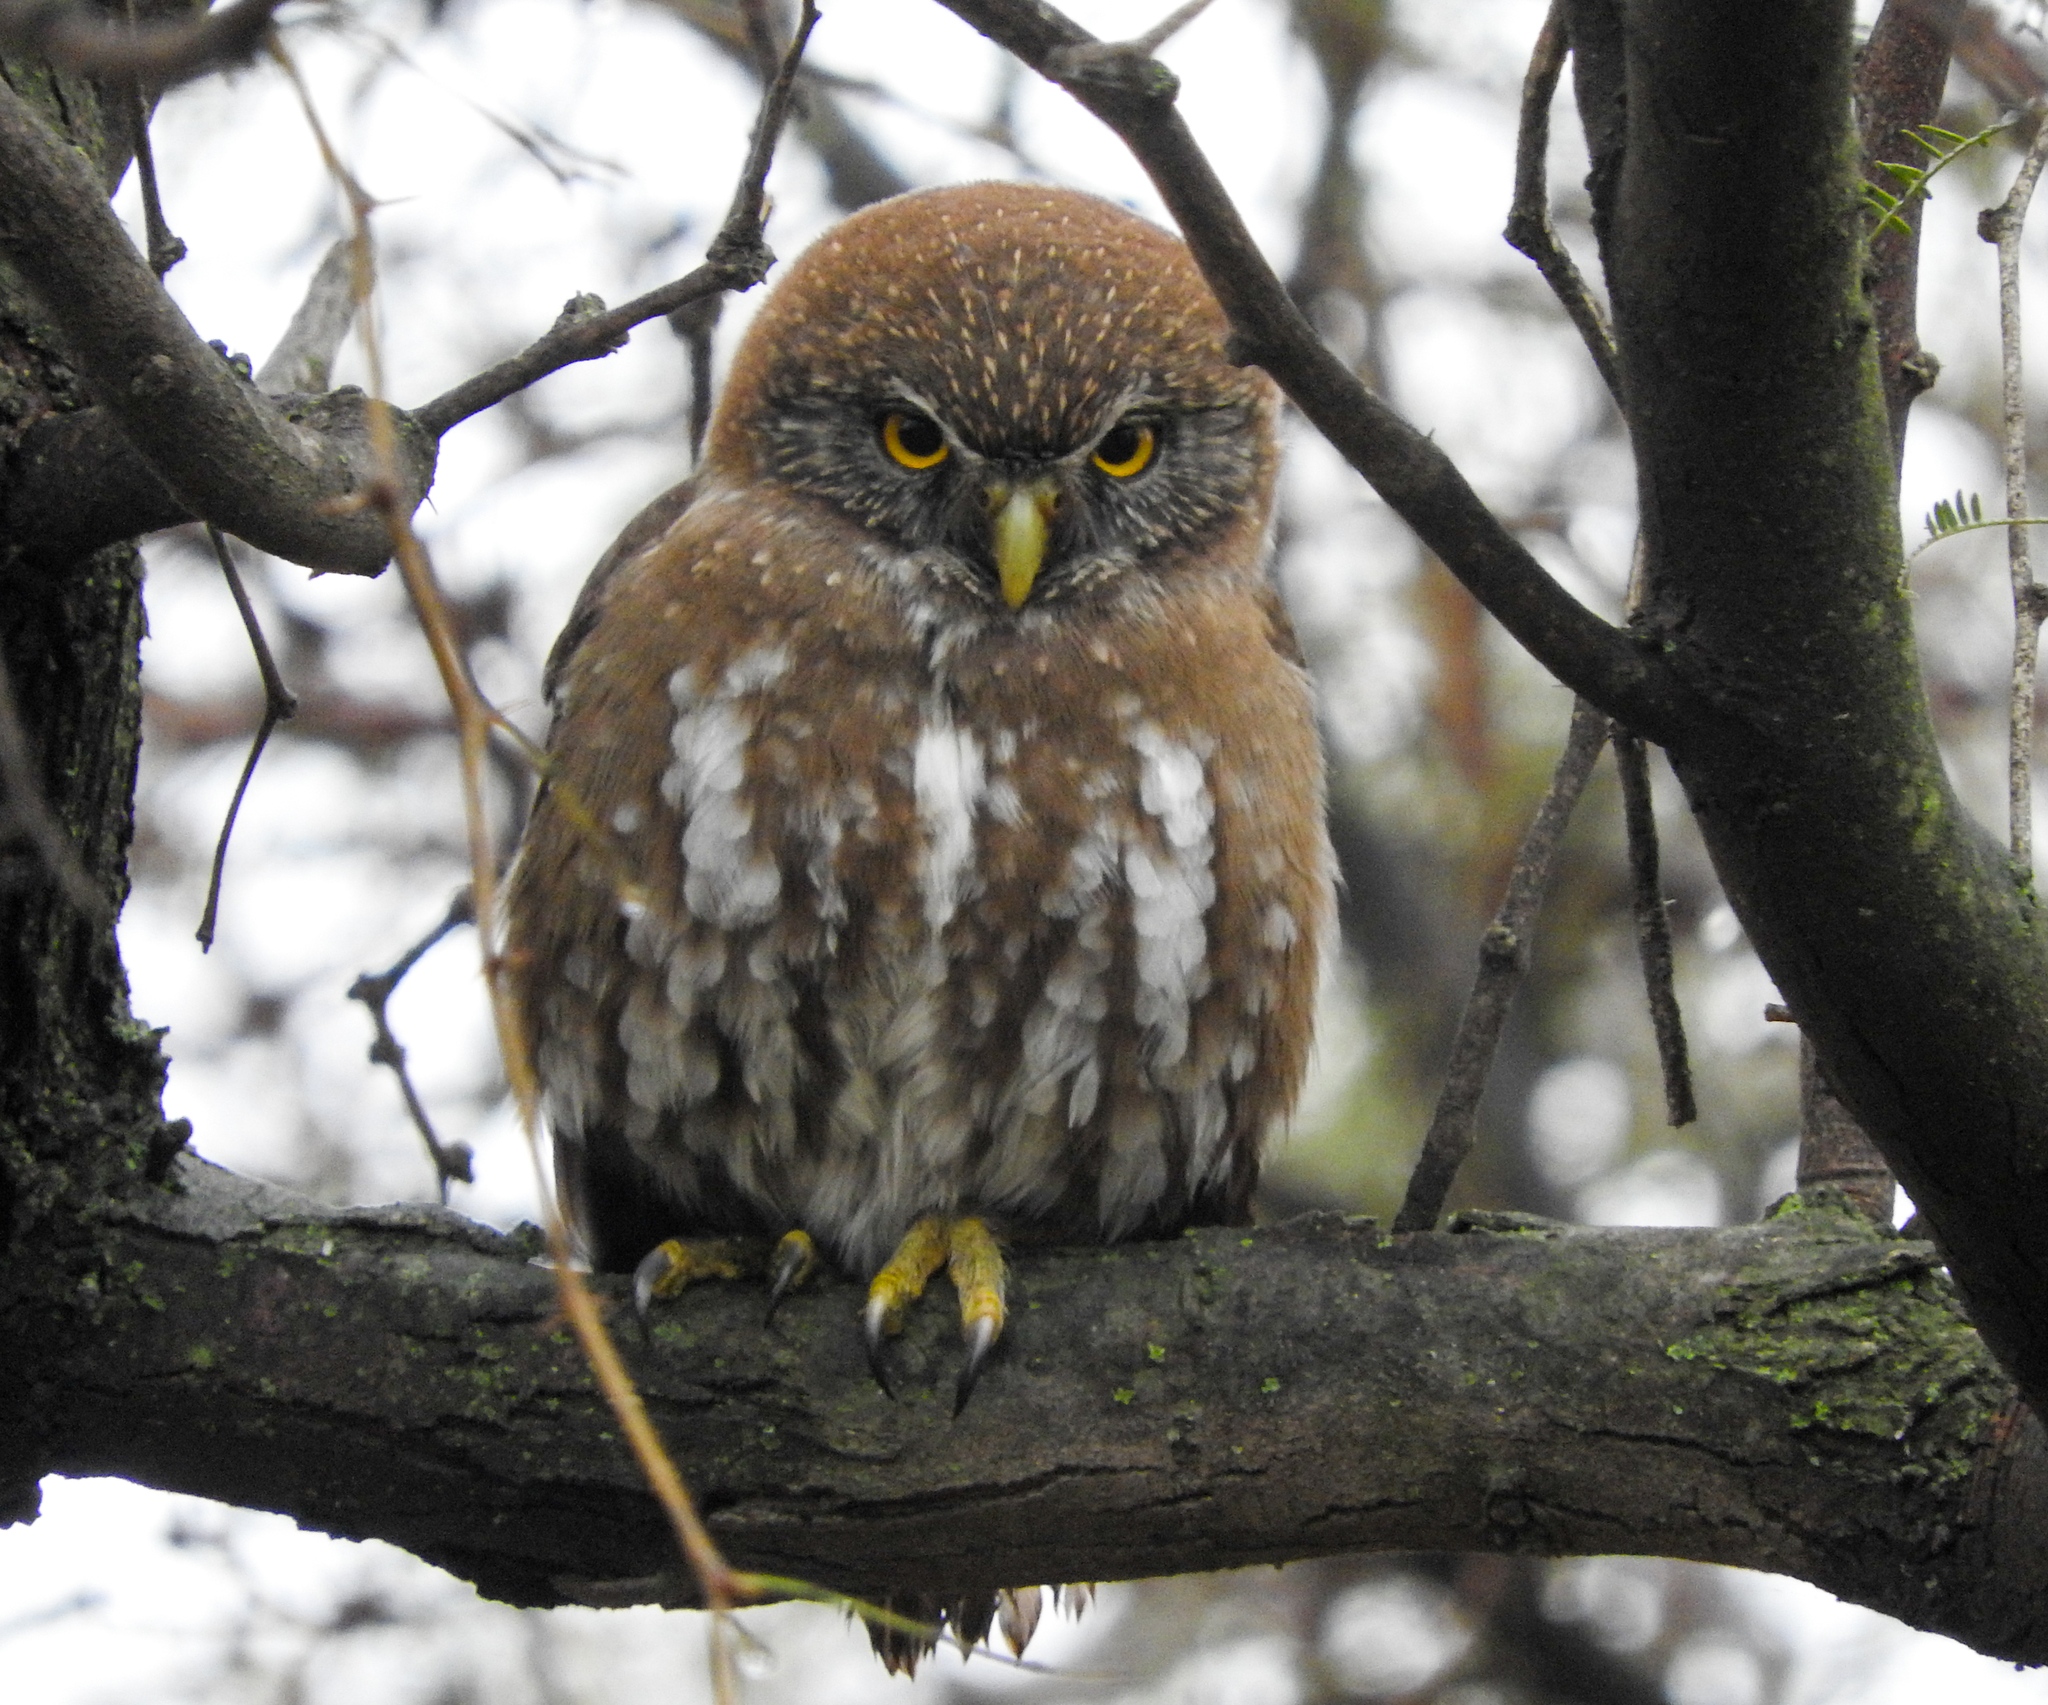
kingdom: Animalia
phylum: Chordata
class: Aves
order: Strigiformes
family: Strigidae
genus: Glaucidium
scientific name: Glaucidium nana
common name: Austral pygmy-owl
